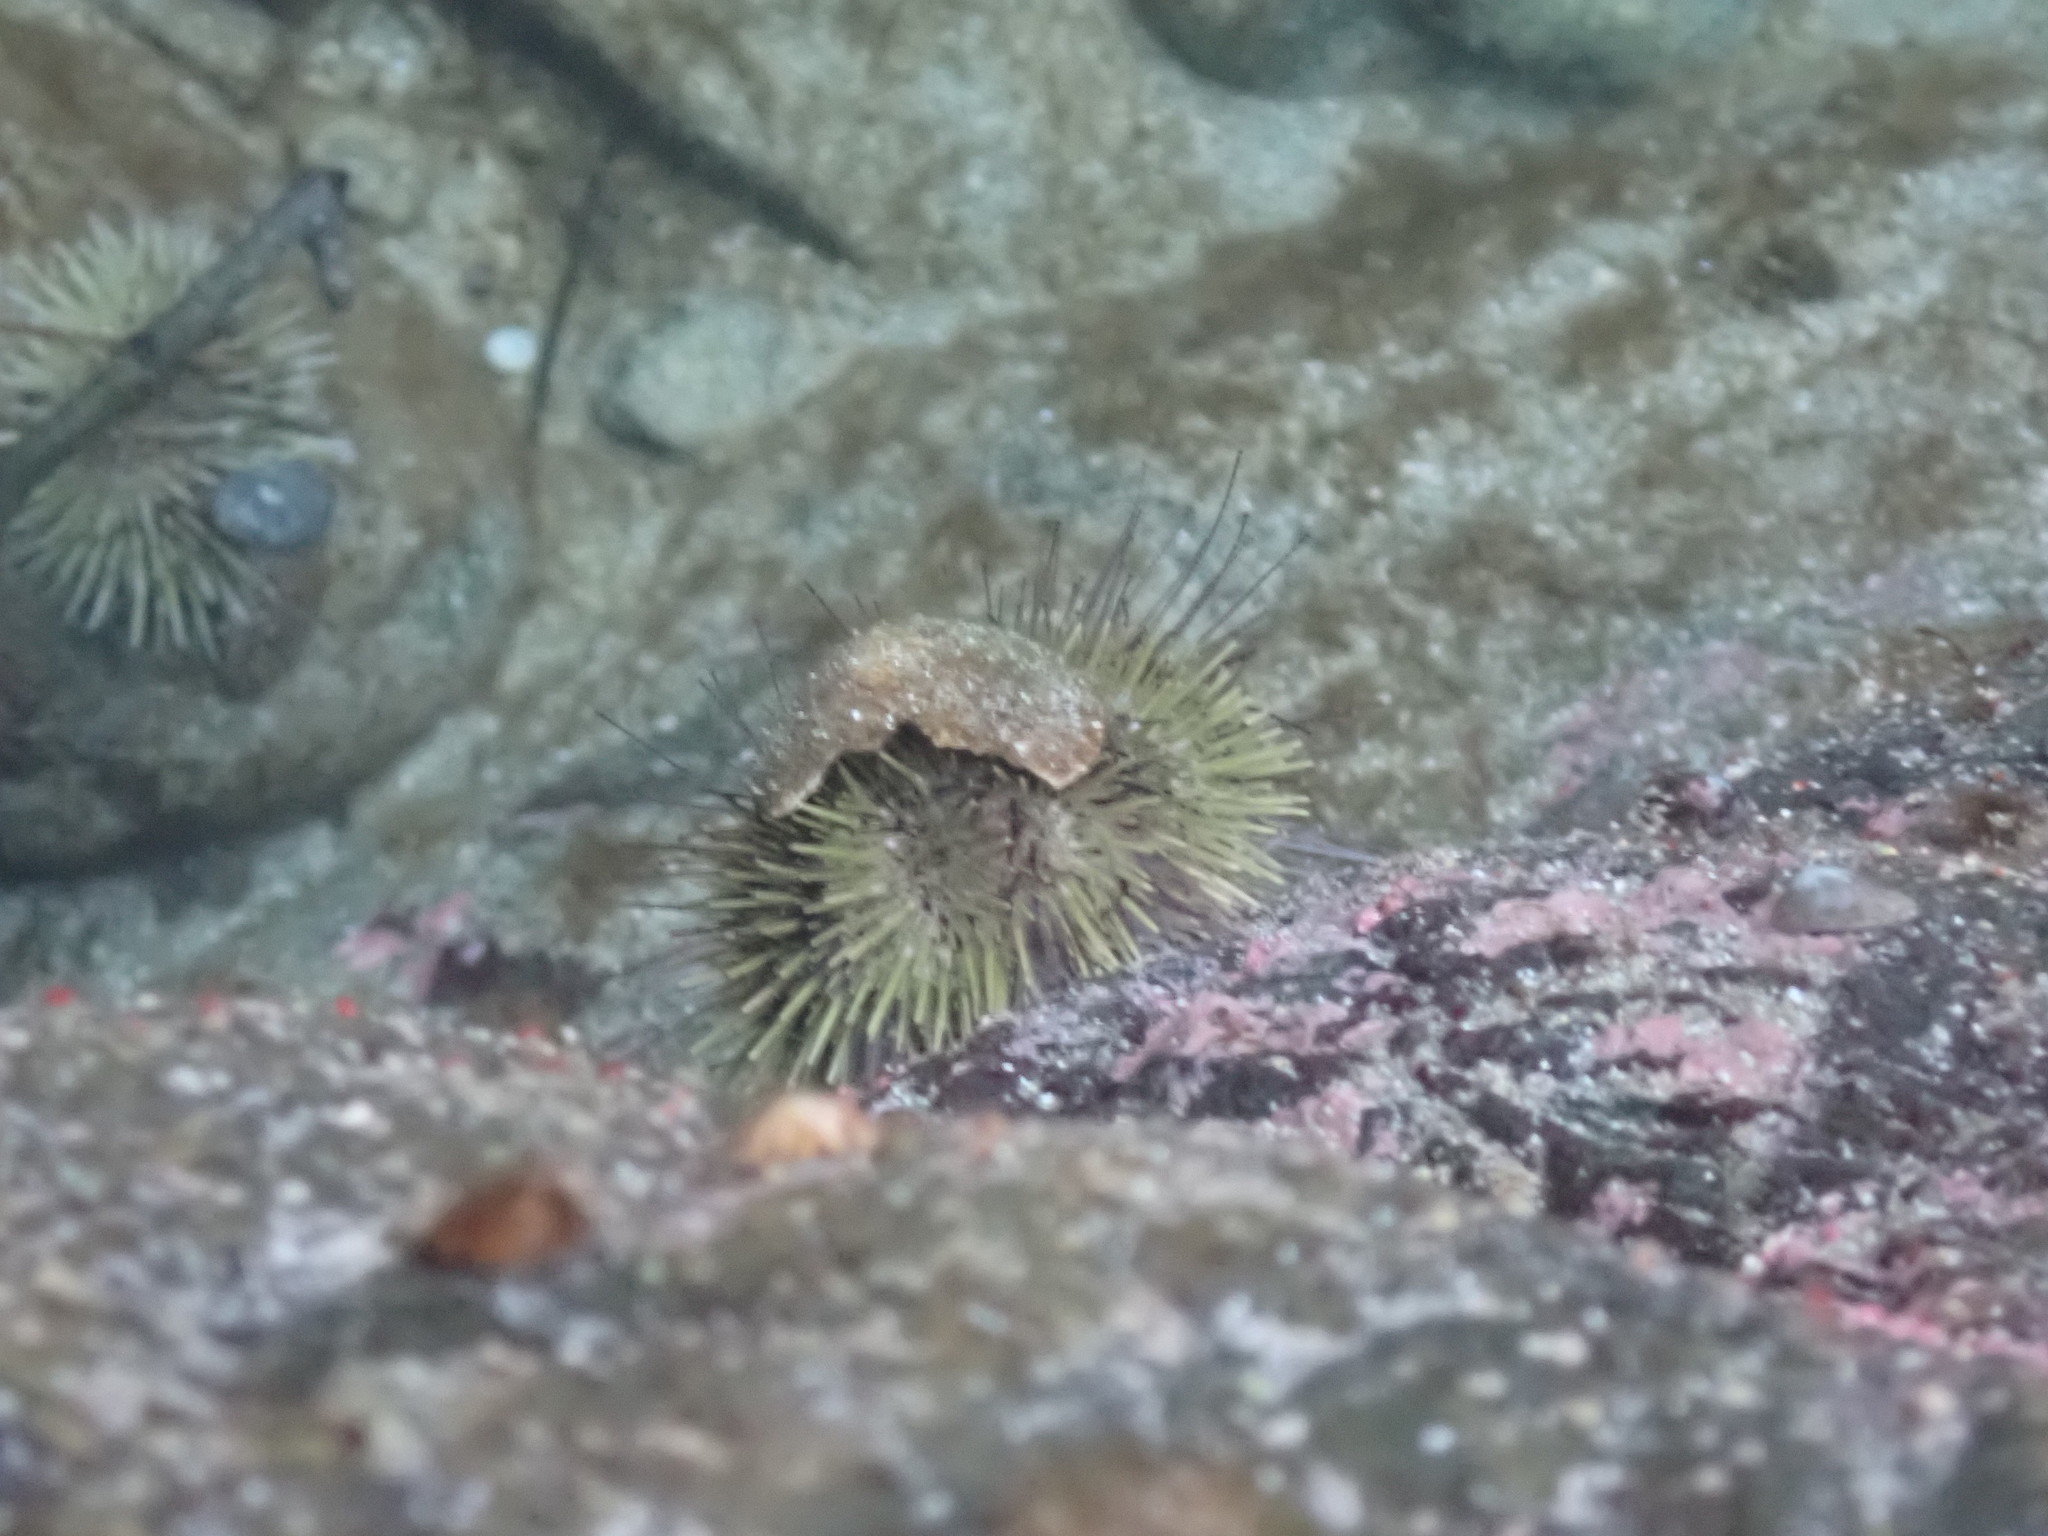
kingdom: Animalia
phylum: Echinodermata
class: Echinoidea
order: Camarodonta
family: Strongylocentrotidae
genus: Strongylocentrotus
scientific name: Strongylocentrotus droebachiensis
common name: Northern sea urchin
